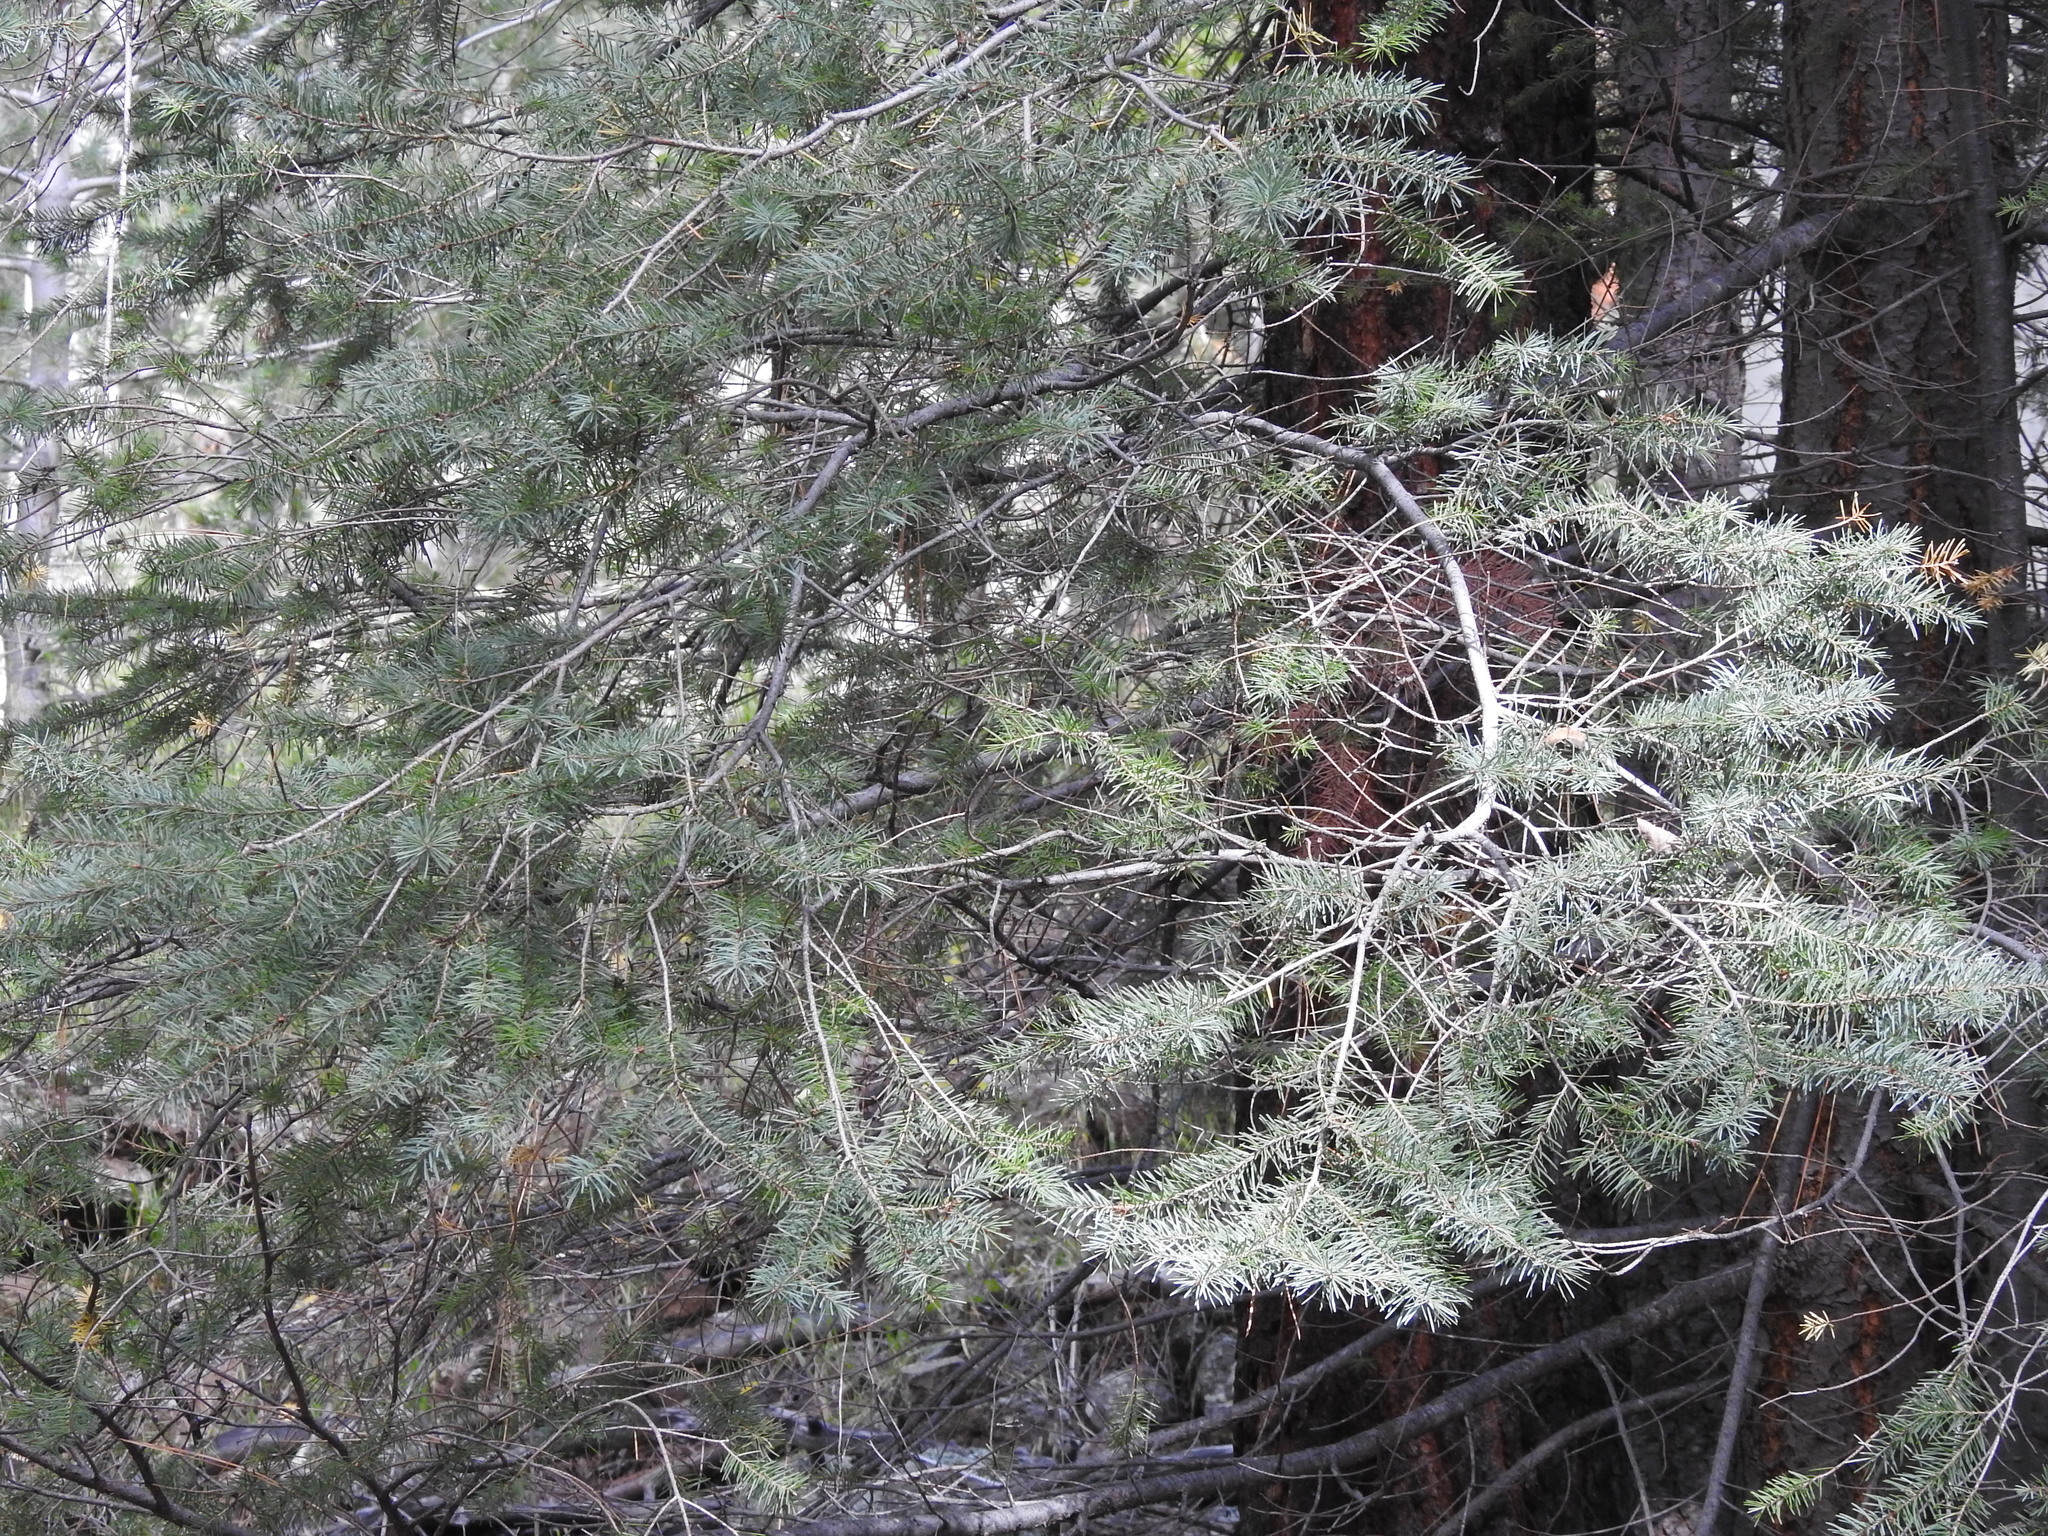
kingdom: Plantae
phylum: Tracheophyta
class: Pinopsida
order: Pinales
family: Pinaceae
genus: Pseudotsuga
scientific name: Pseudotsuga menziesii
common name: Douglas fir
